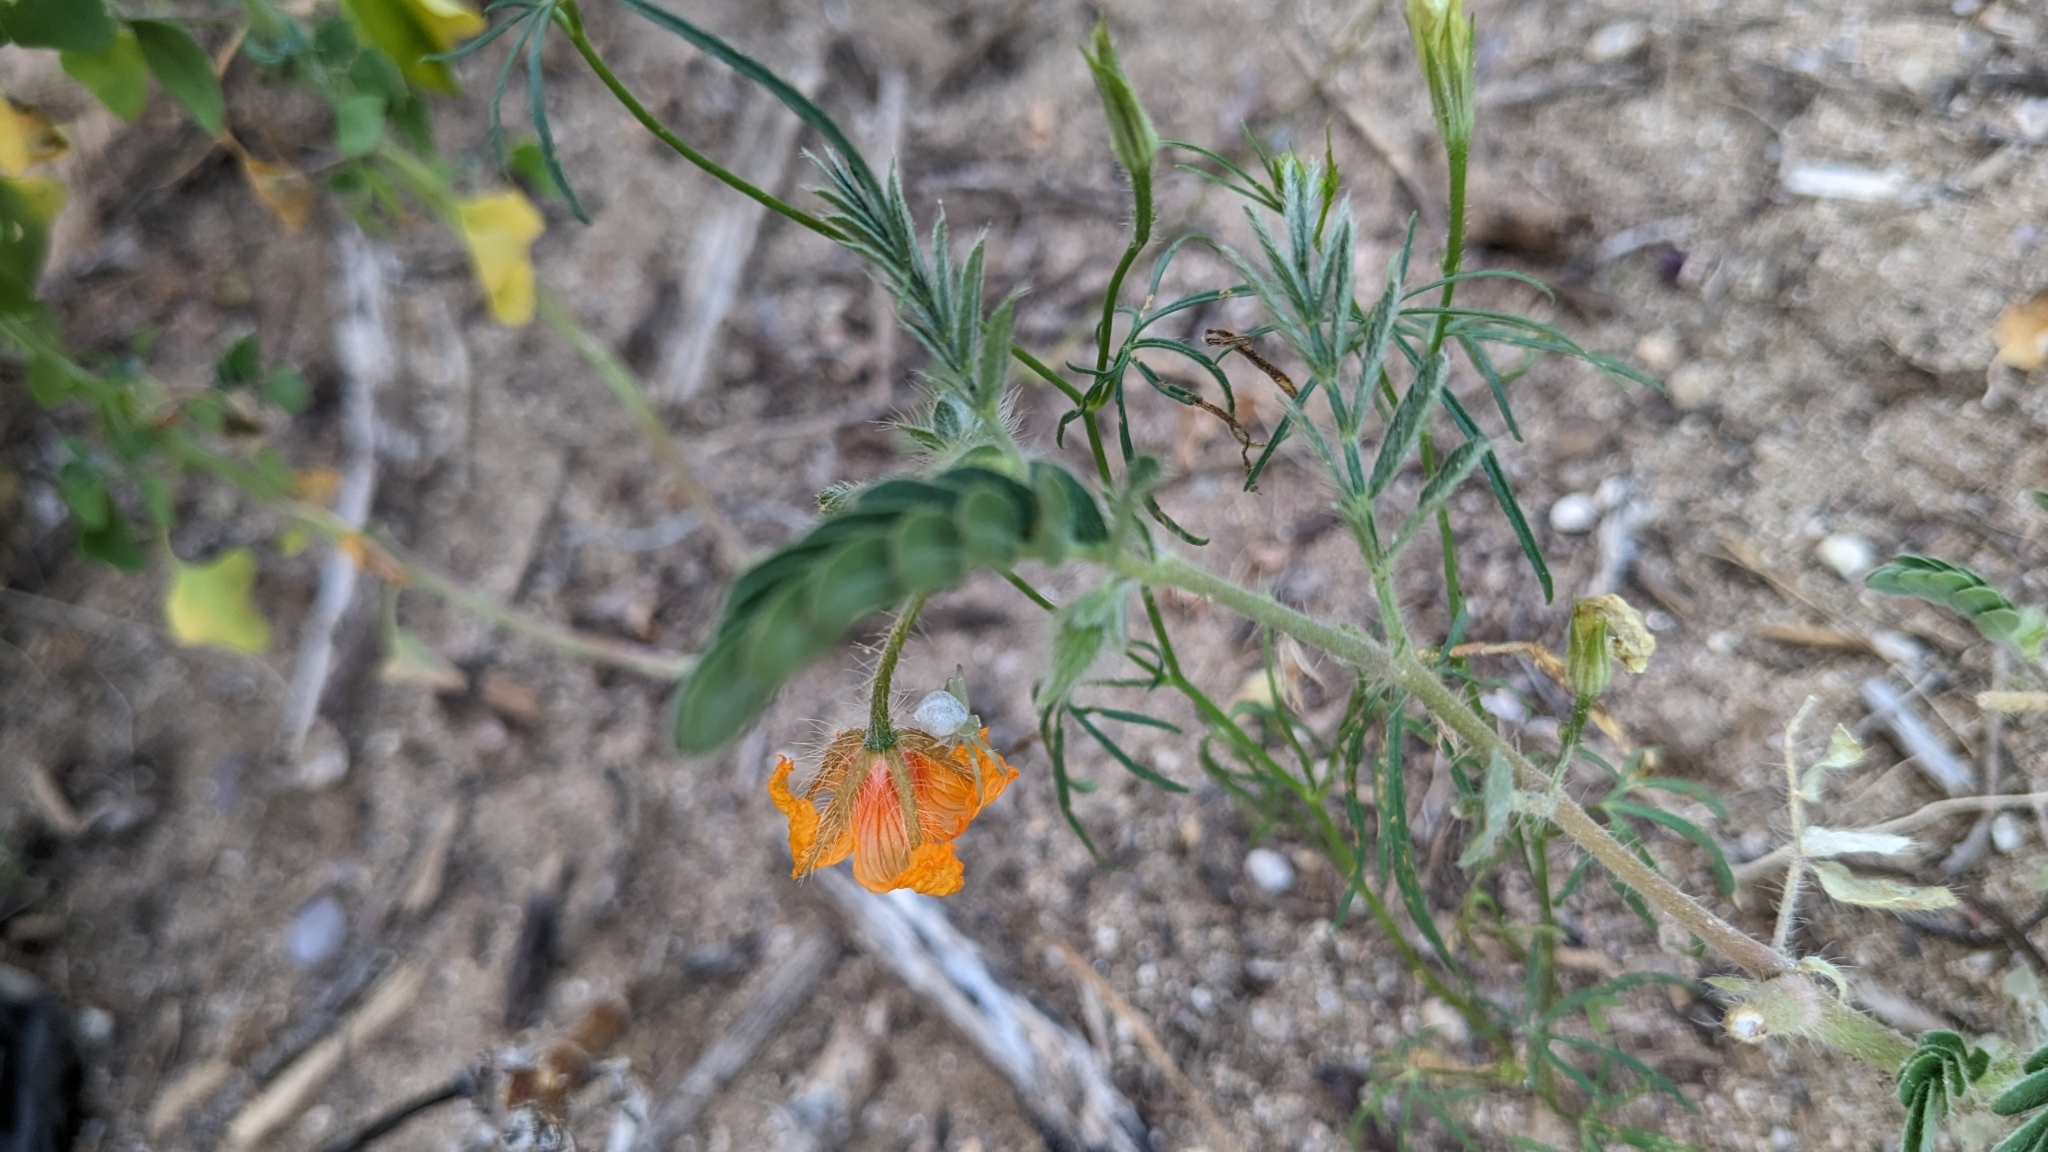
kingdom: Plantae
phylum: Tracheophyta
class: Magnoliopsida
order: Zygophyllales
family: Zygophyllaceae
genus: Kallstroemia
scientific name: Kallstroemia grandiflora
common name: Arizona-poppy
